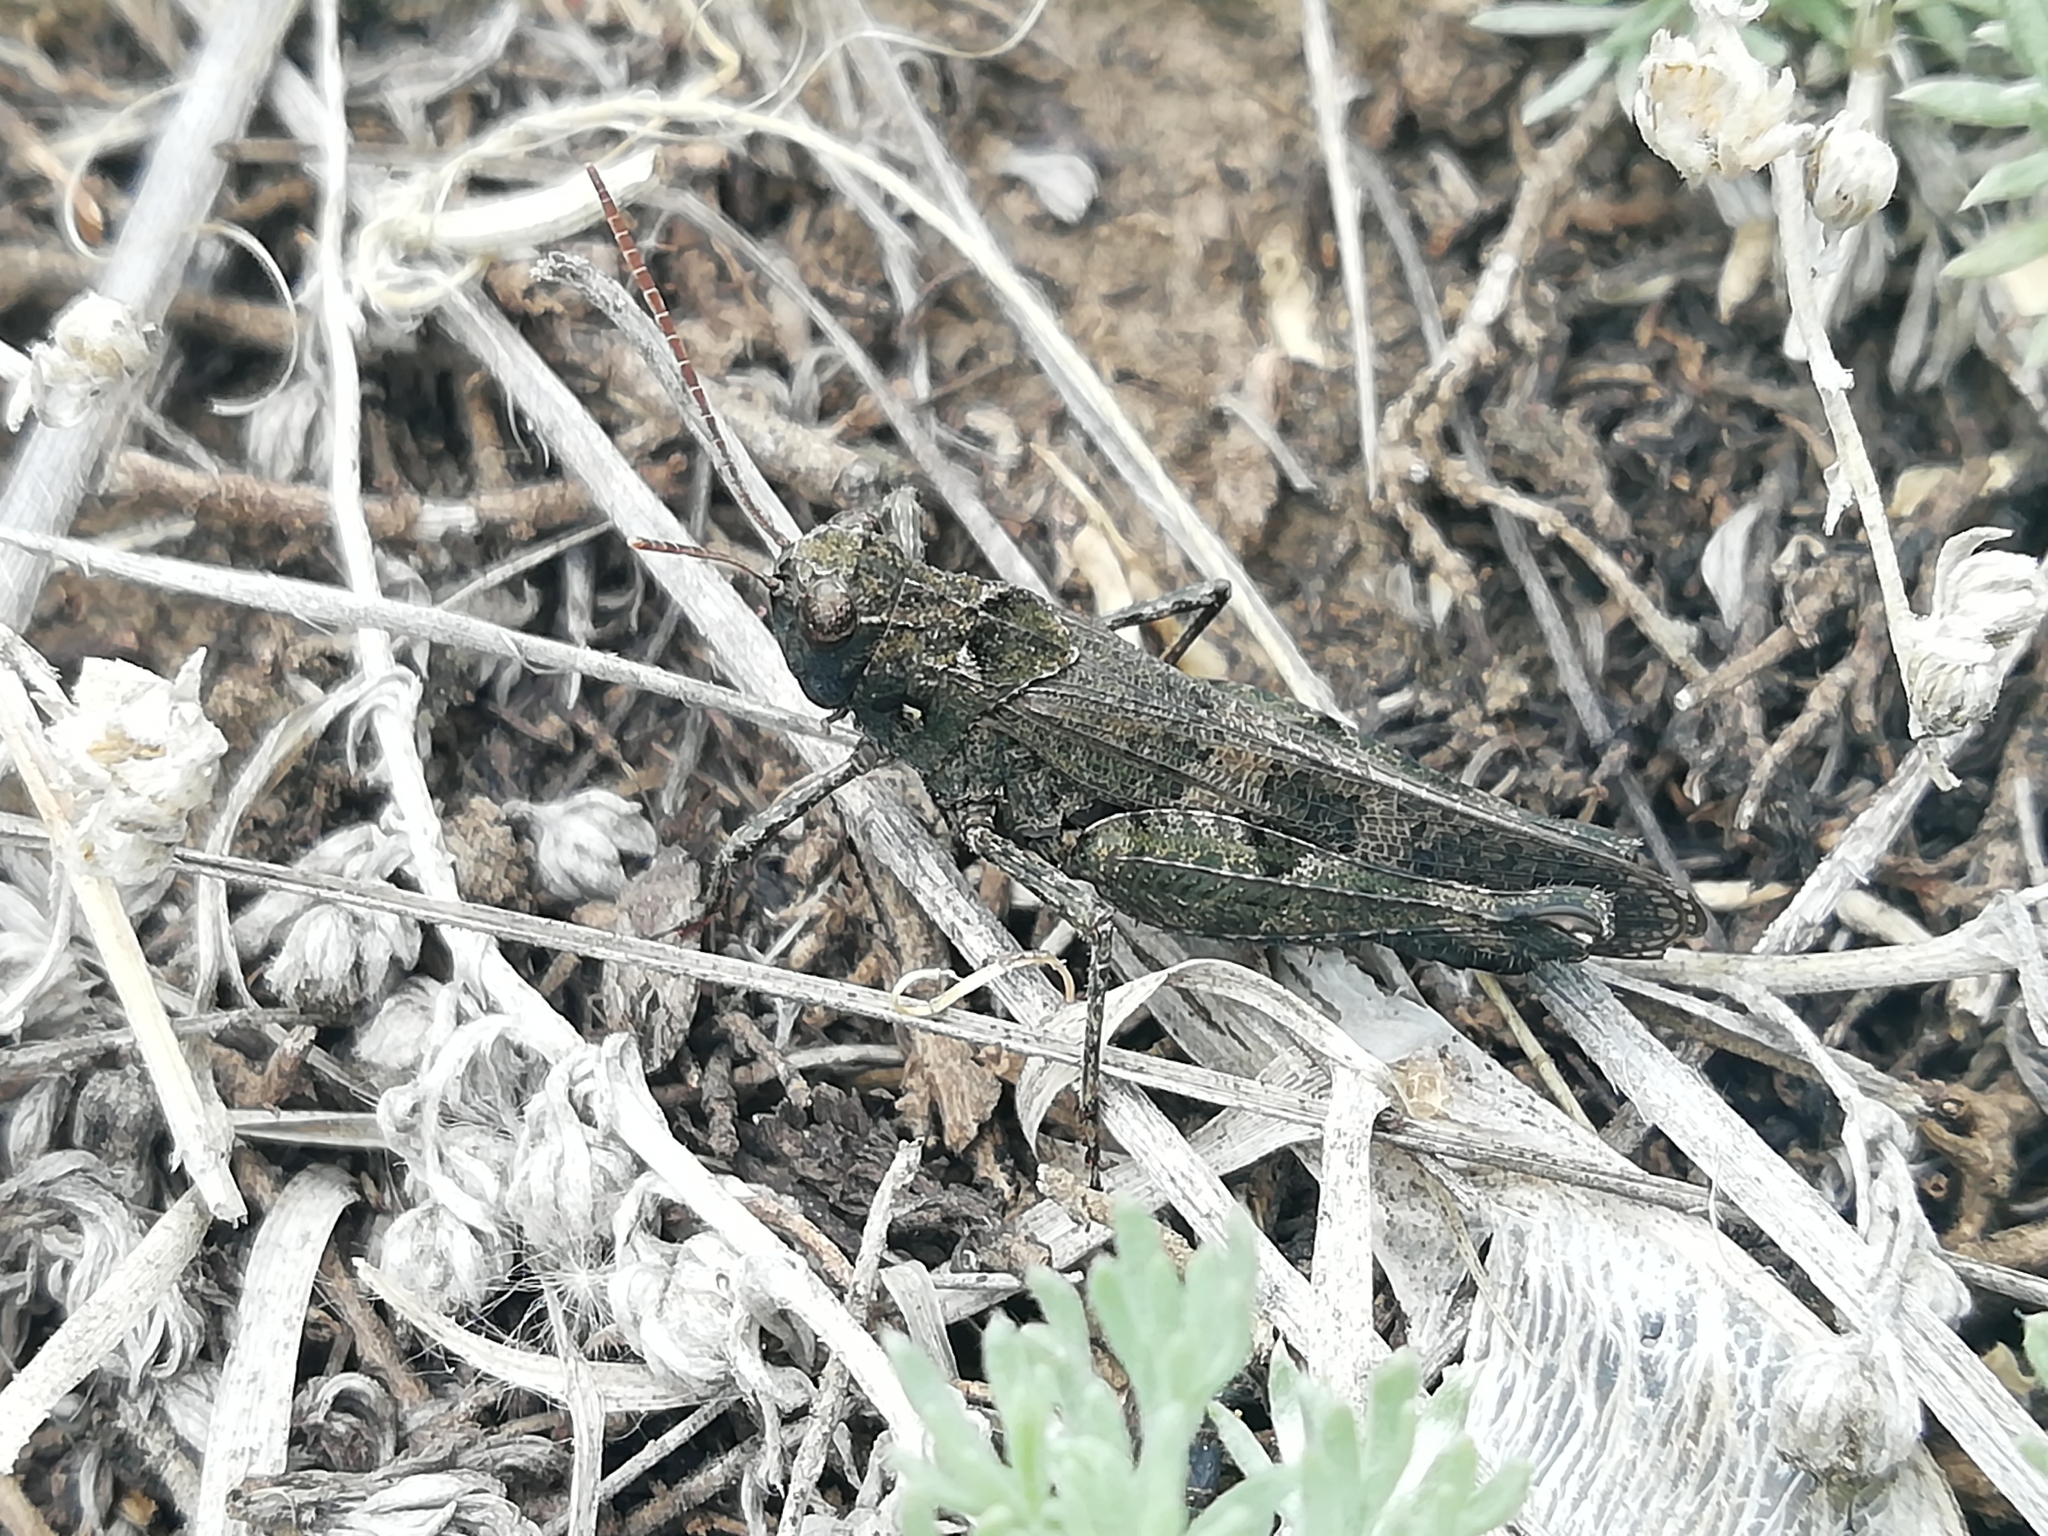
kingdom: Animalia
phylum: Arthropoda
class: Insecta
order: Orthoptera
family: Acrididae
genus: Celes
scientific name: Celes variabilis
